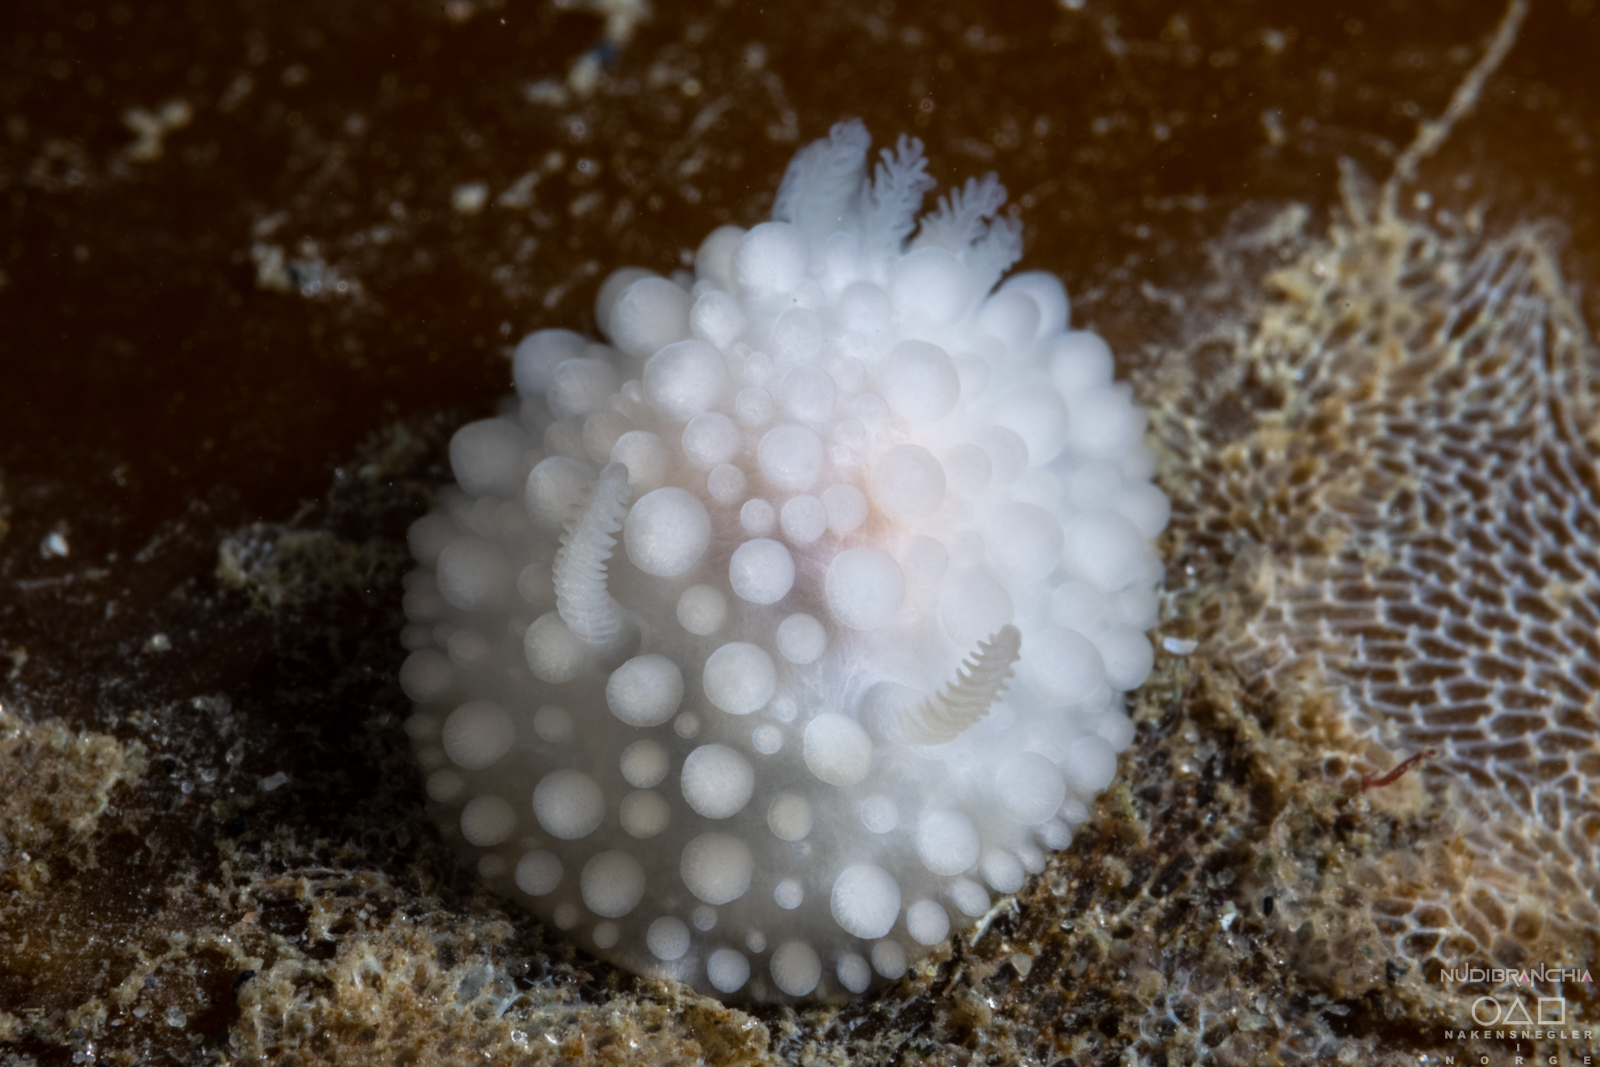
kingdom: Animalia
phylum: Mollusca
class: Gastropoda
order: Nudibranchia
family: Onchidorididae
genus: Adalaria
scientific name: Adalaria proxima
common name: False doris
